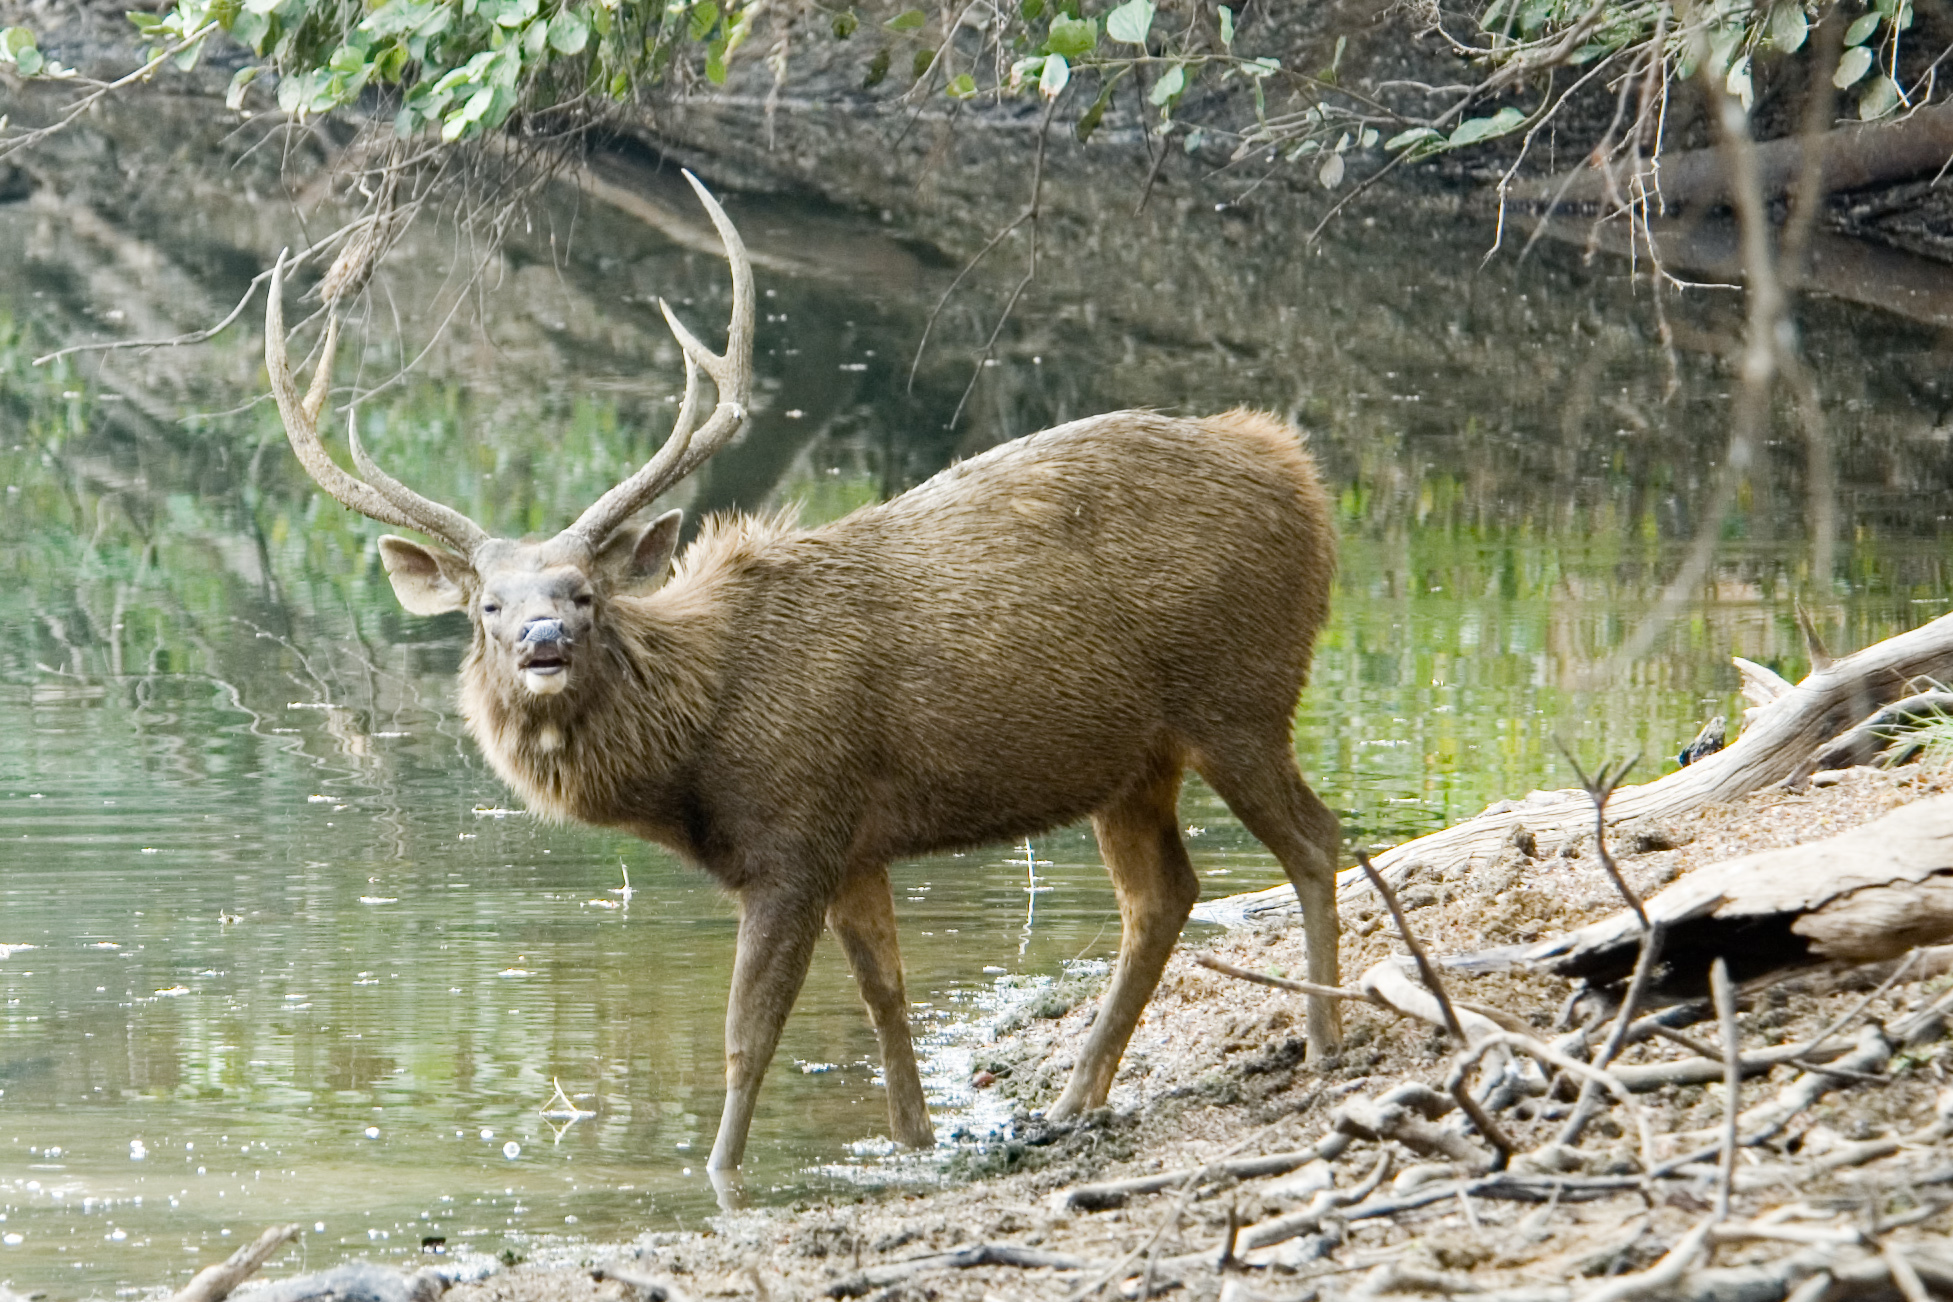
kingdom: Animalia
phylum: Chordata
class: Mammalia
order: Artiodactyla
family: Cervidae
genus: Rusa
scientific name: Rusa unicolor
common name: Sambar
